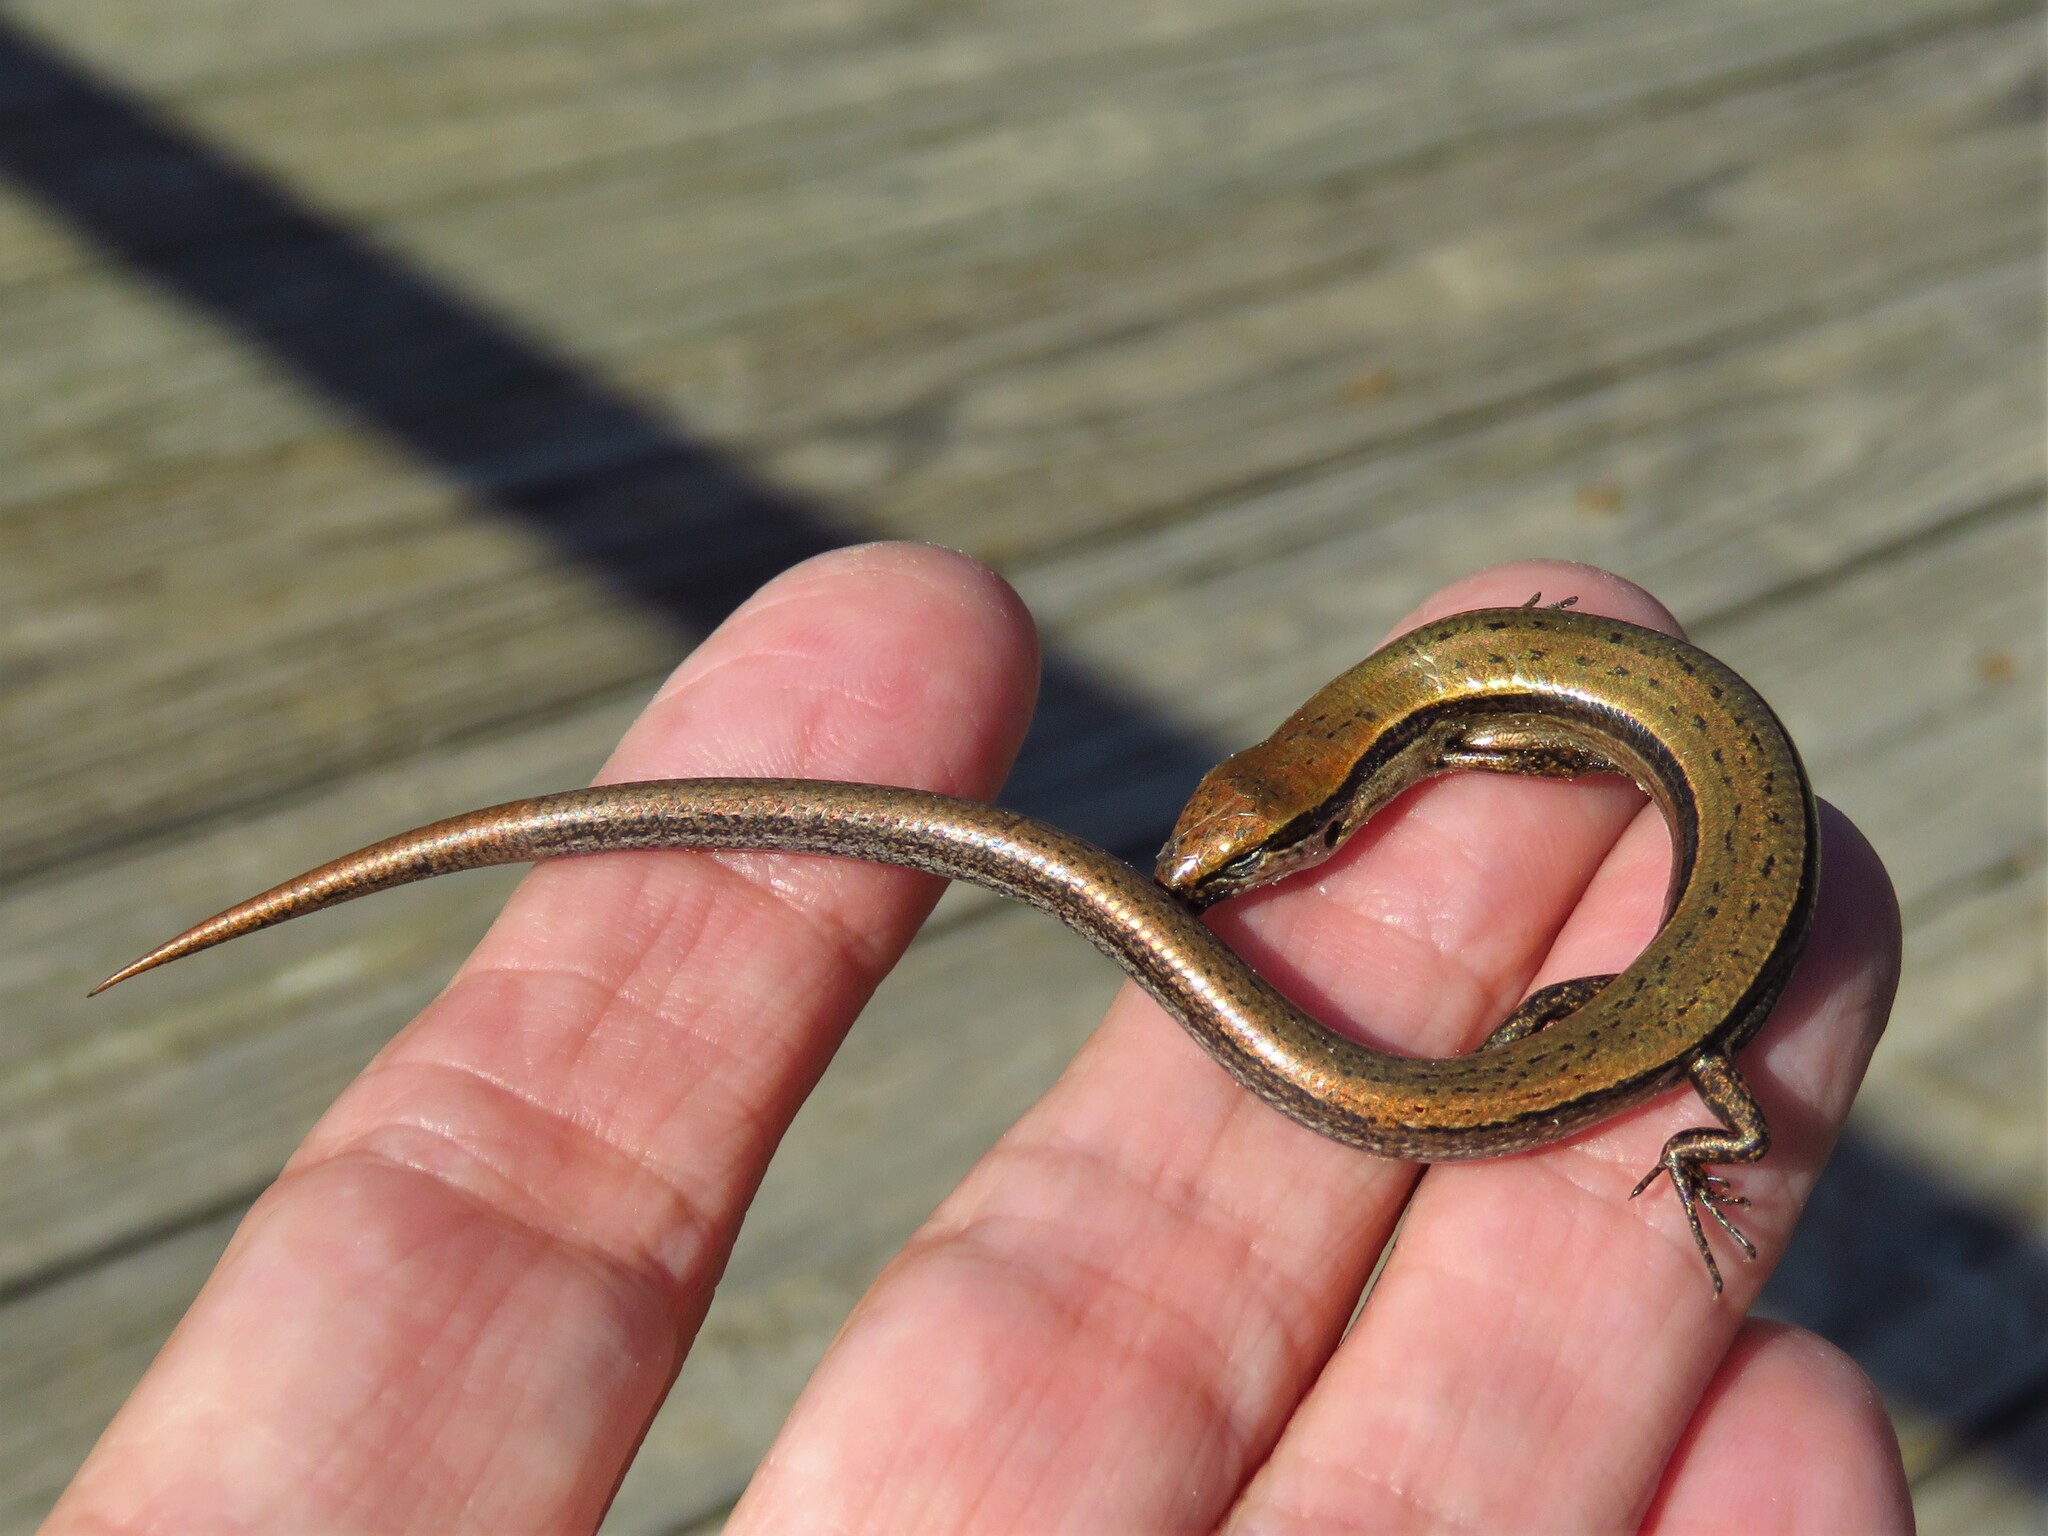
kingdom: Animalia
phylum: Chordata
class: Squamata
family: Scincidae
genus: Scincella
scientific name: Scincella lateralis
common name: Ground skink
